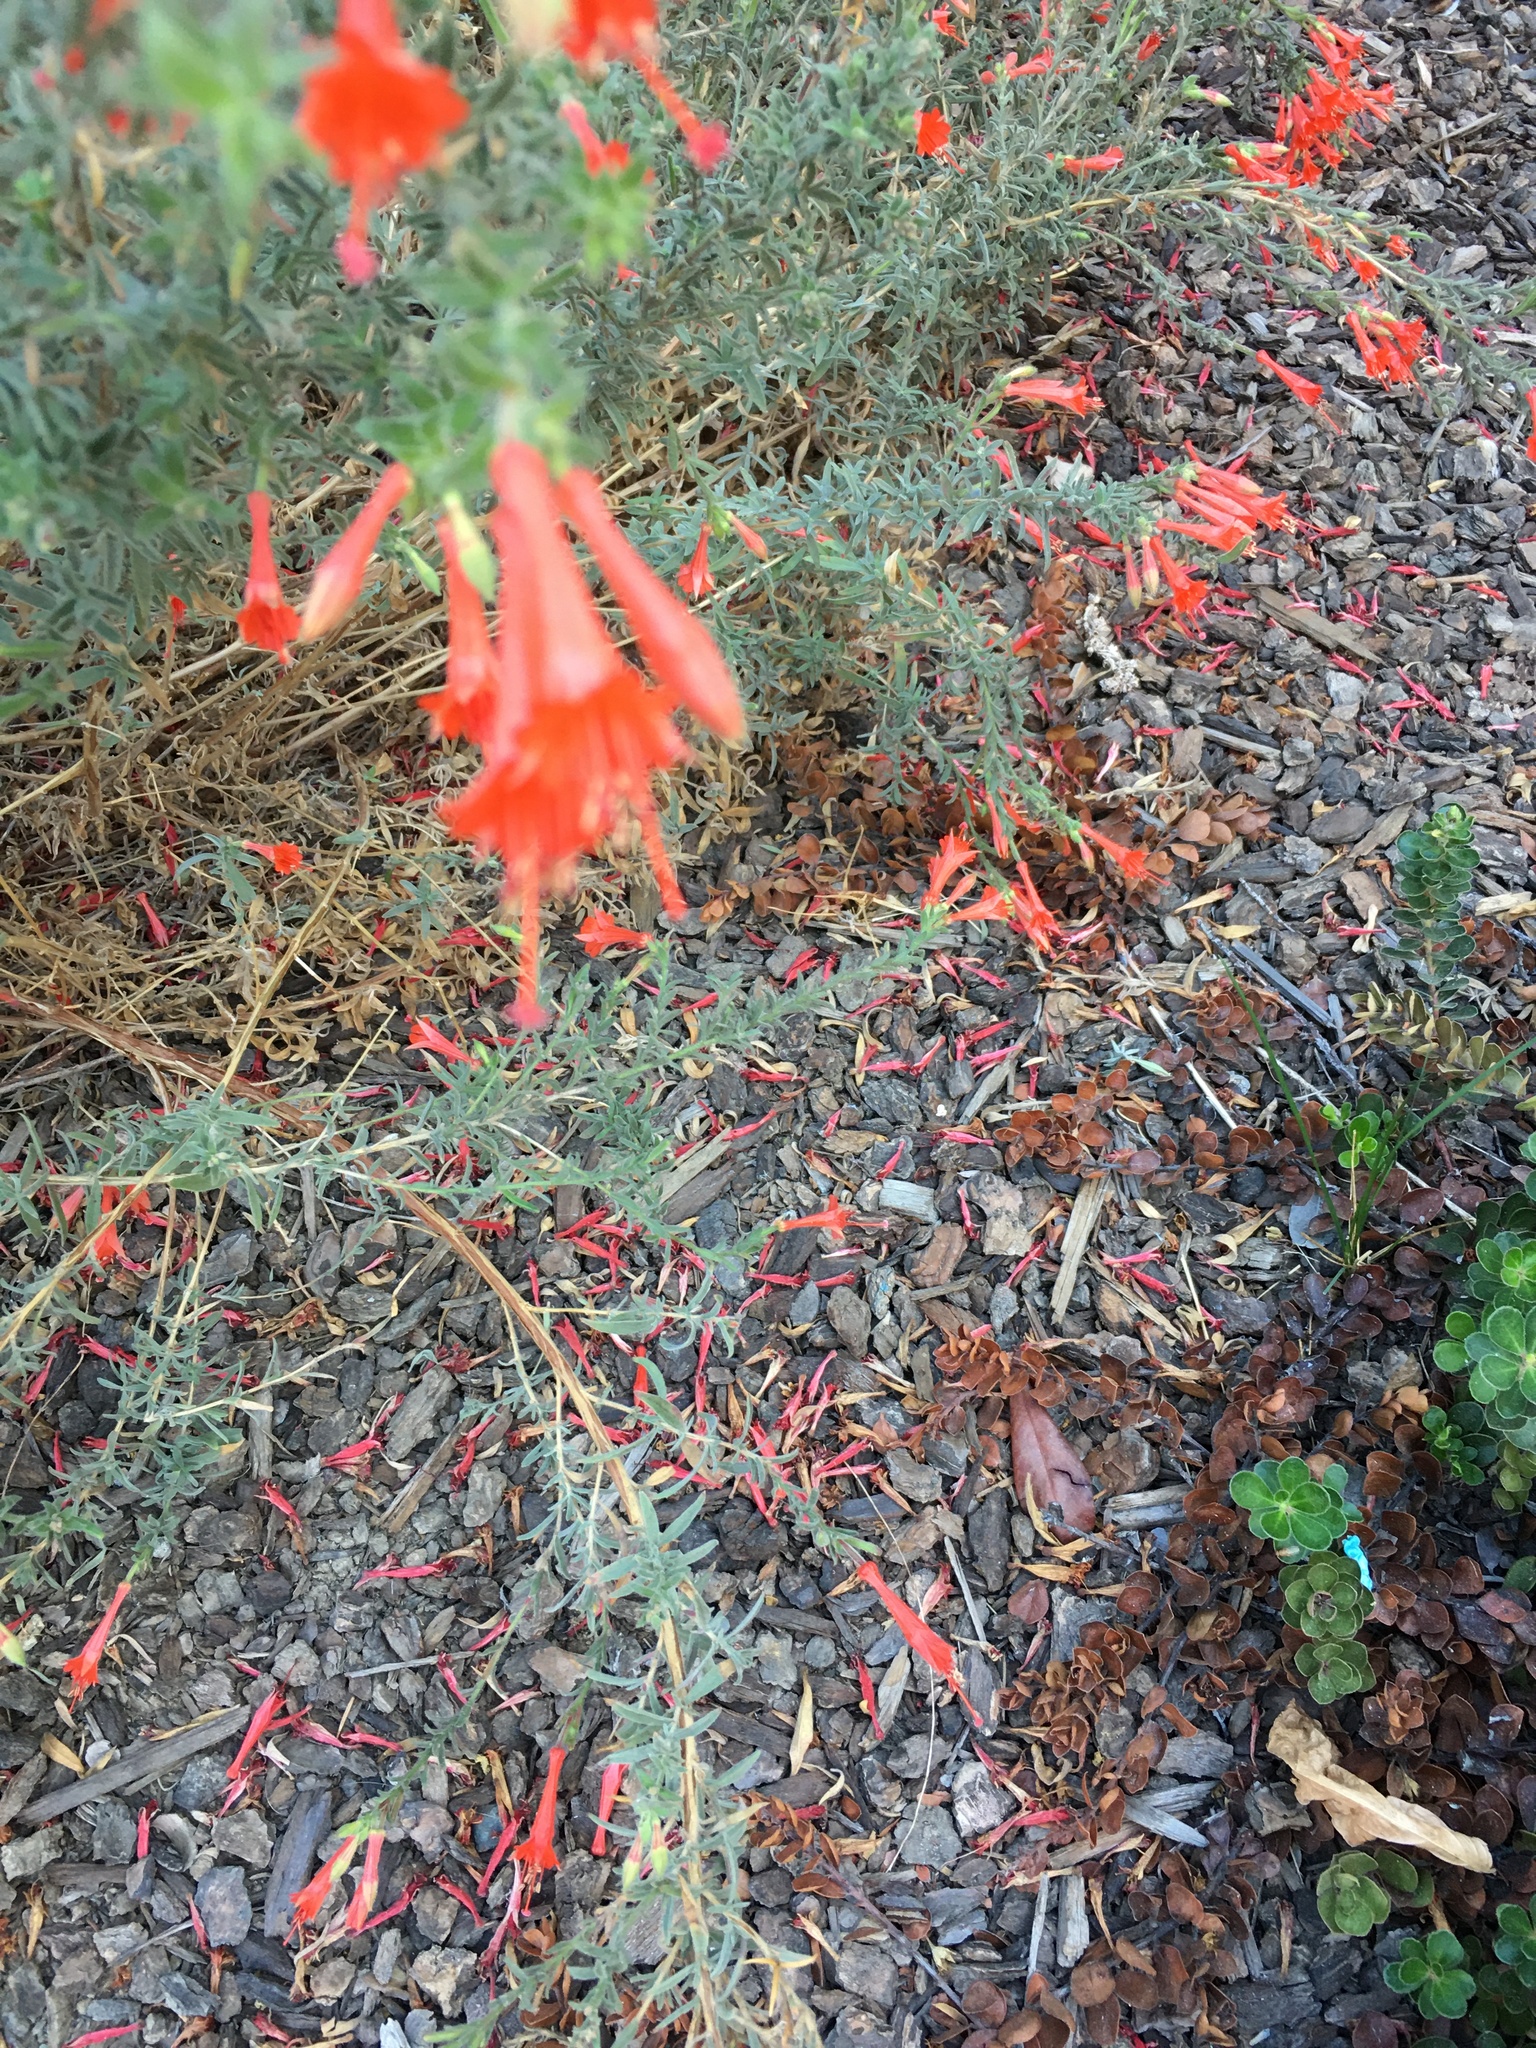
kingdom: Plantae
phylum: Tracheophyta
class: Magnoliopsida
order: Myrtales
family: Onagraceae
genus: Epilobium
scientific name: Epilobium canum
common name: California-fuchsia
